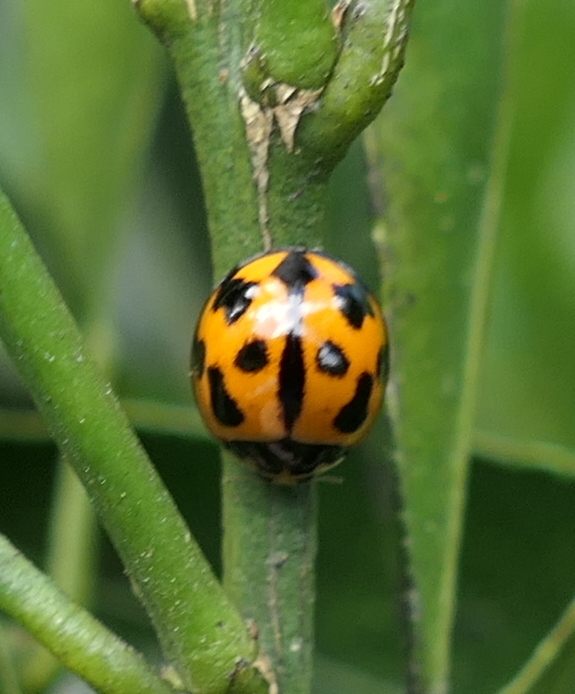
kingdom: Animalia
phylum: Arthropoda
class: Insecta
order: Coleoptera
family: Coccinellidae
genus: Coelophora
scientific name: Coelophora inaequalis
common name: Common australian lady beetle
